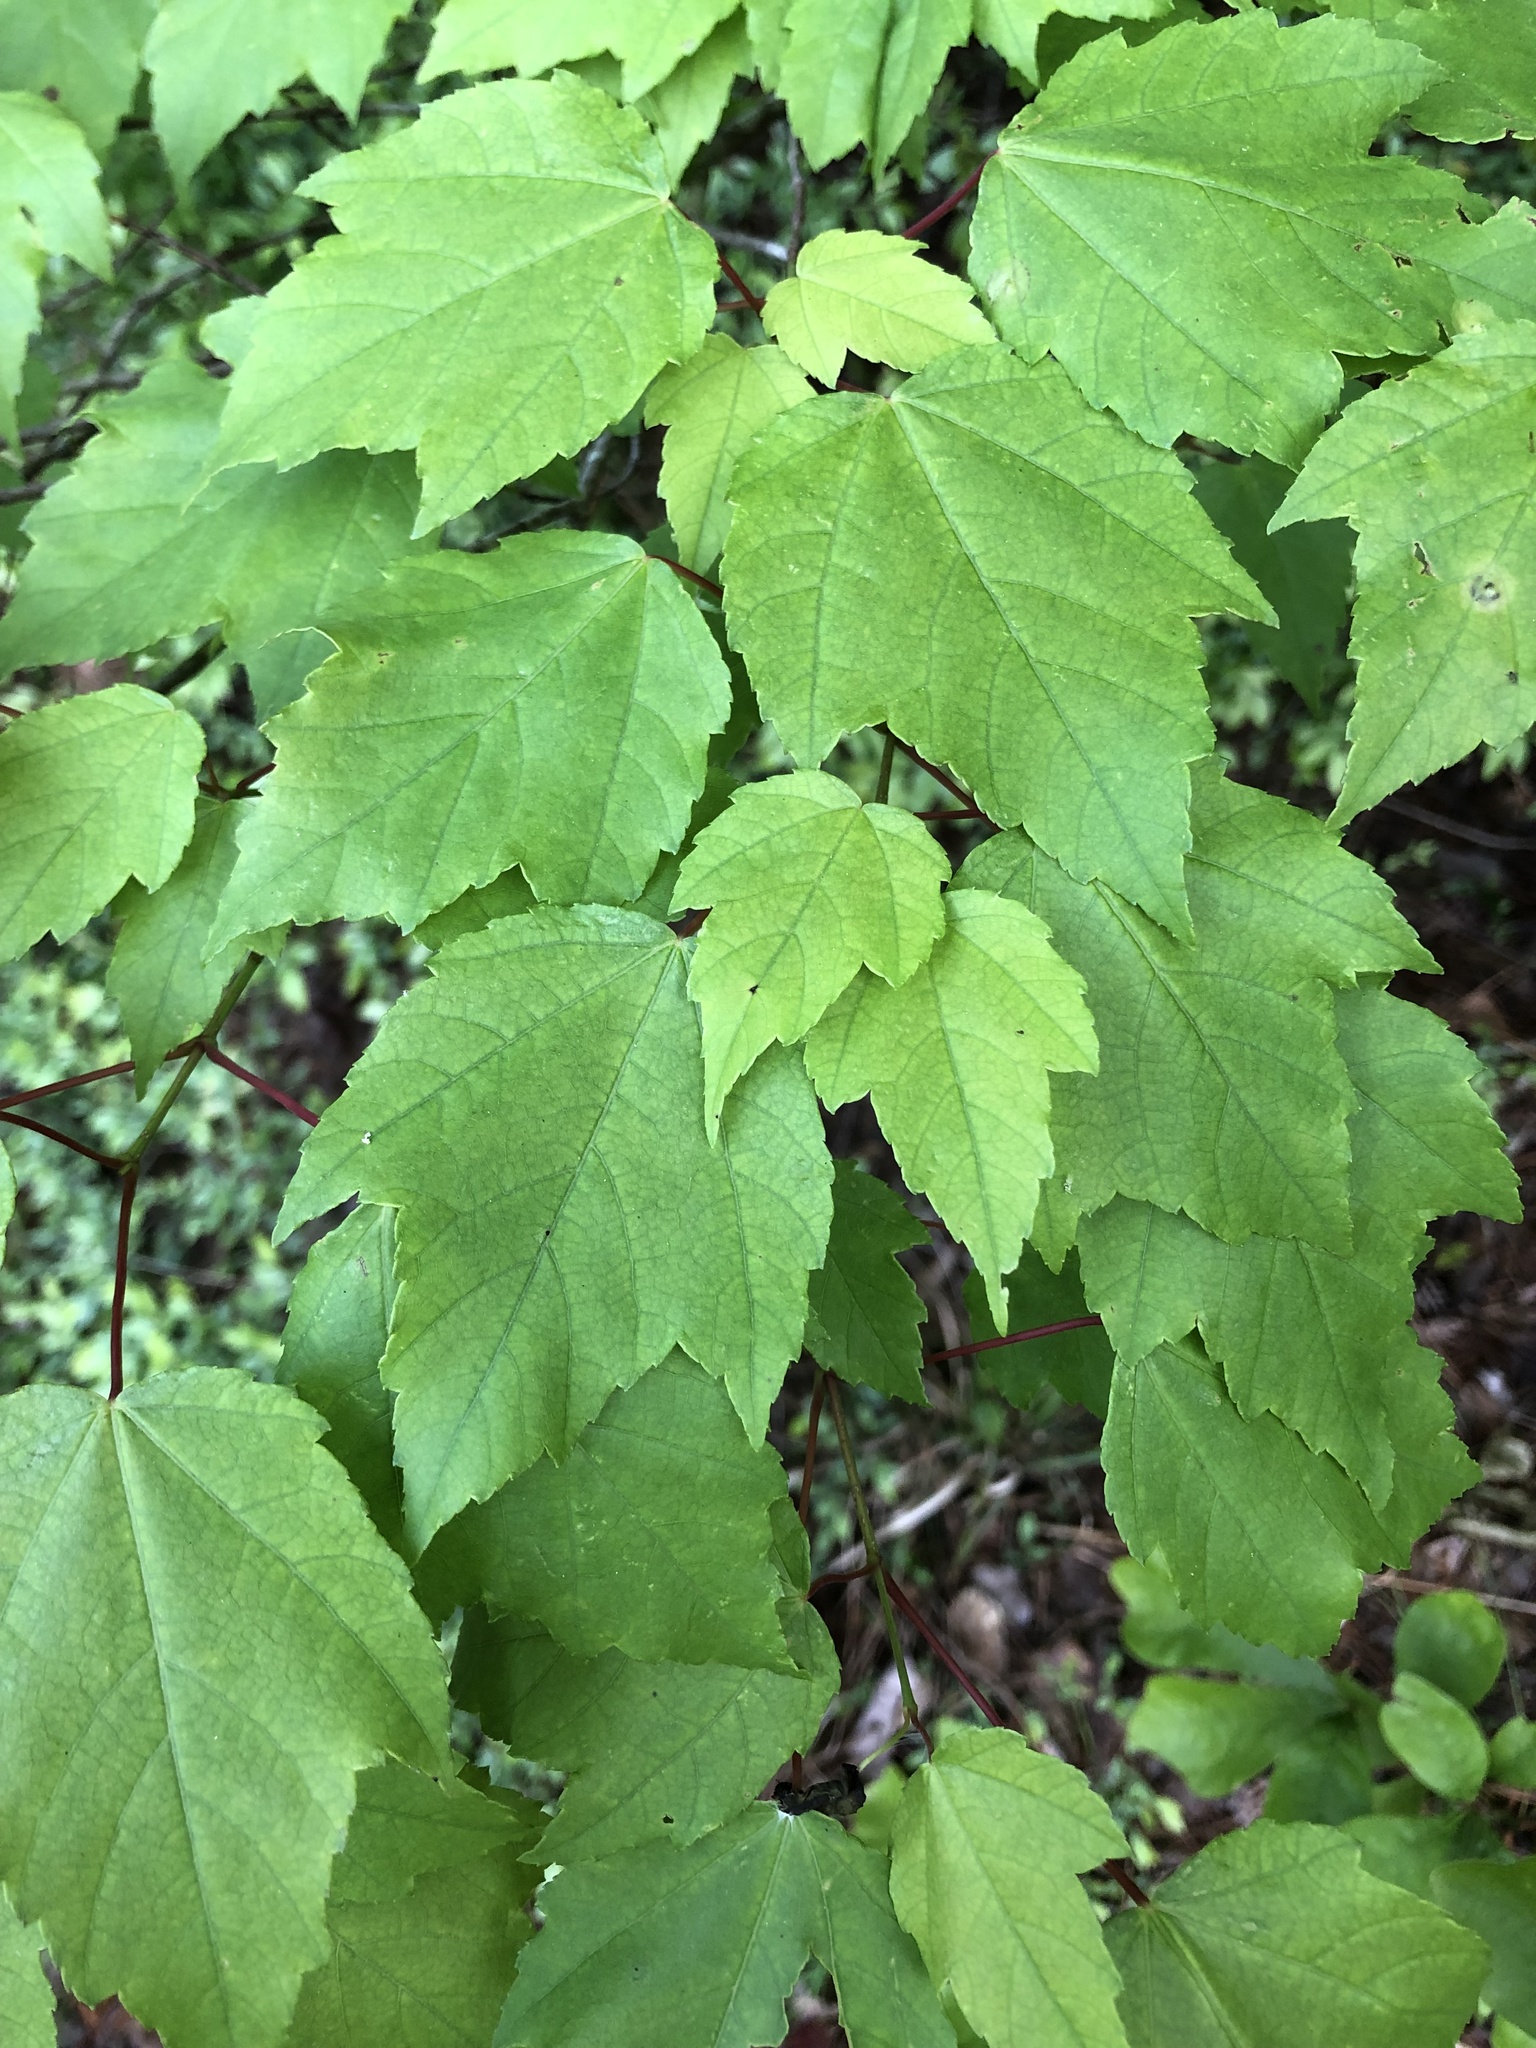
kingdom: Plantae
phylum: Tracheophyta
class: Magnoliopsida
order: Sapindales
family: Sapindaceae
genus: Acer
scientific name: Acer rubrum
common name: Red maple
